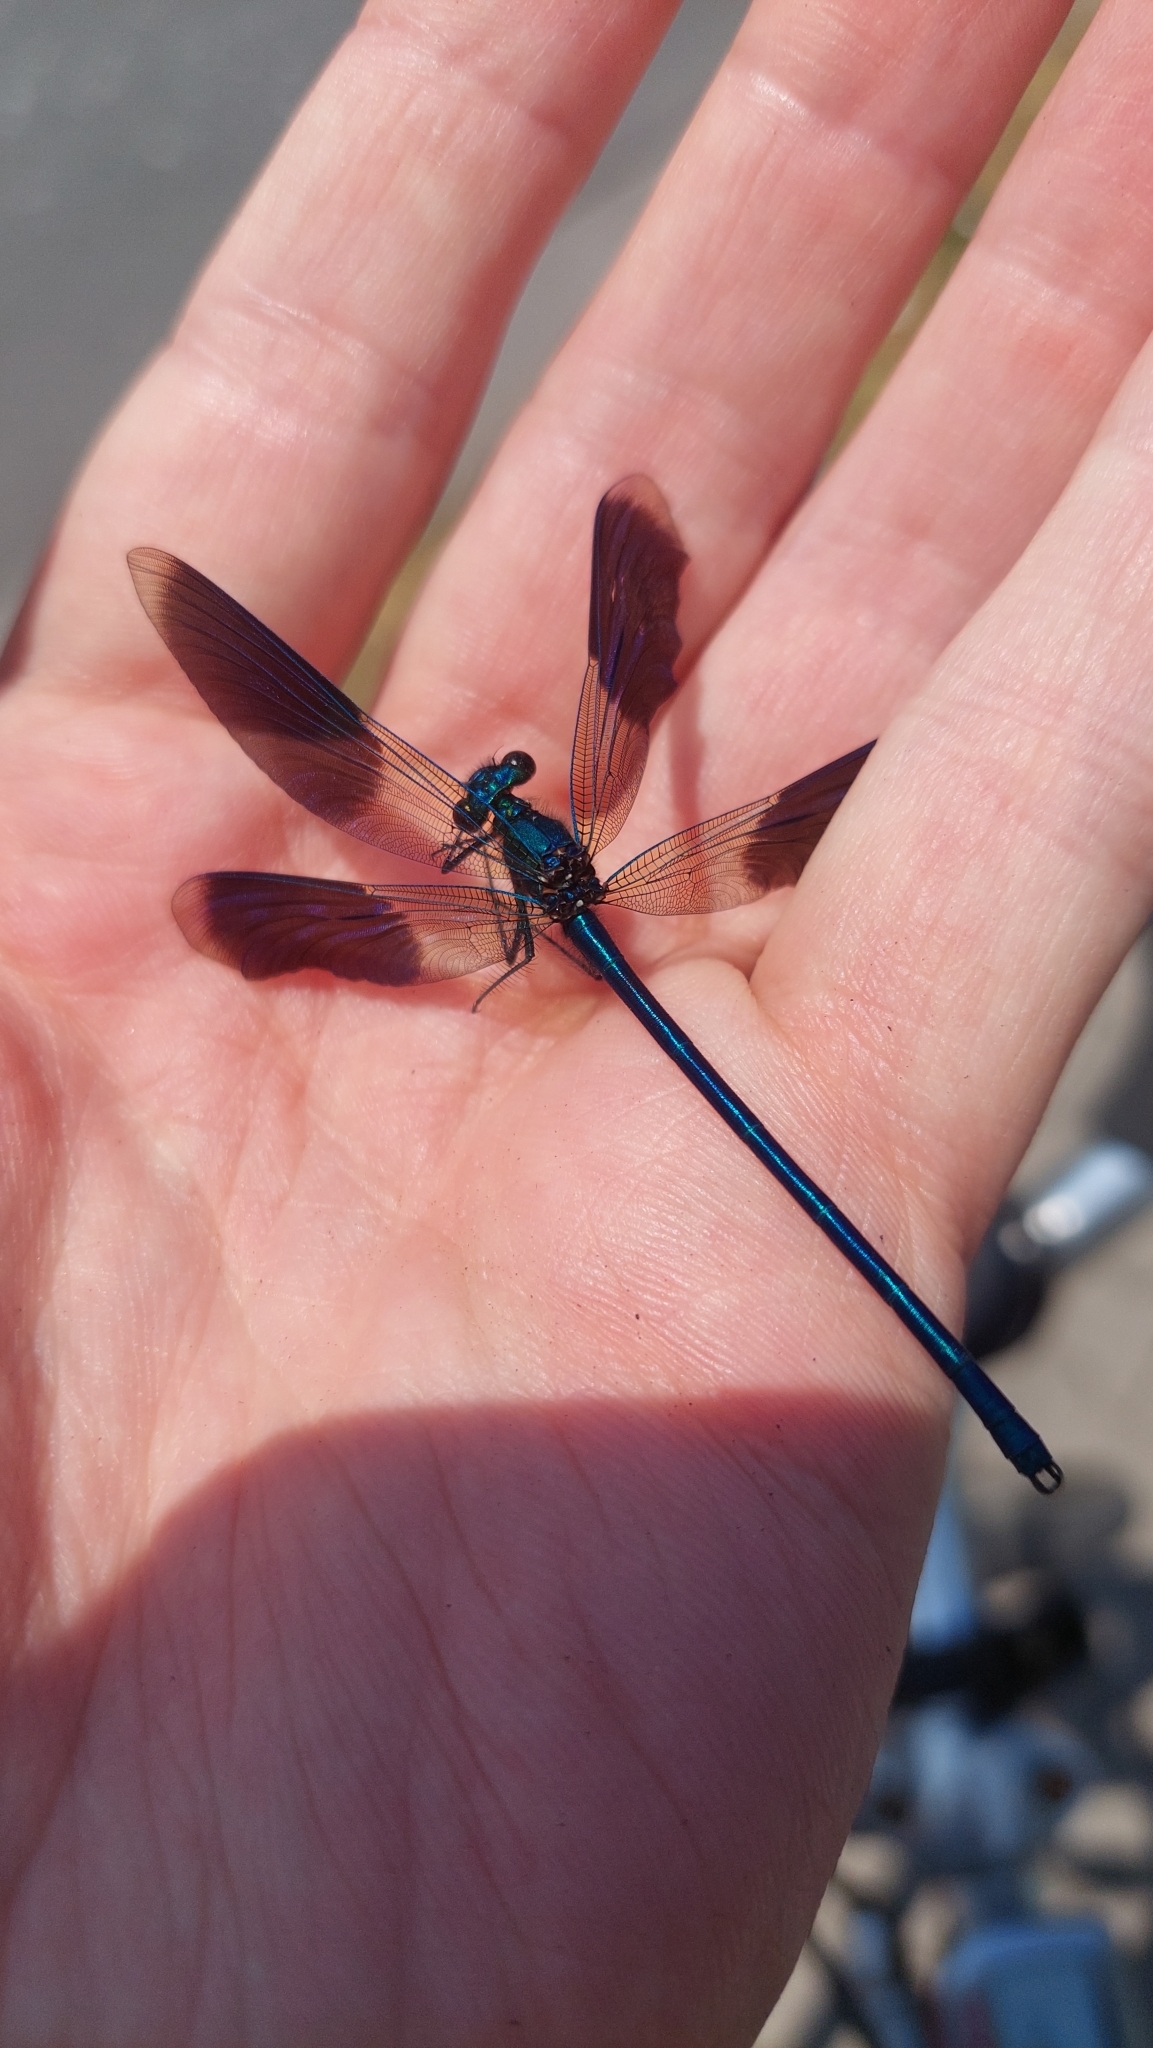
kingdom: Animalia
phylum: Arthropoda
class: Insecta
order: Odonata
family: Calopterygidae
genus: Calopteryx
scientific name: Calopteryx splendens
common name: Banded demoiselle
